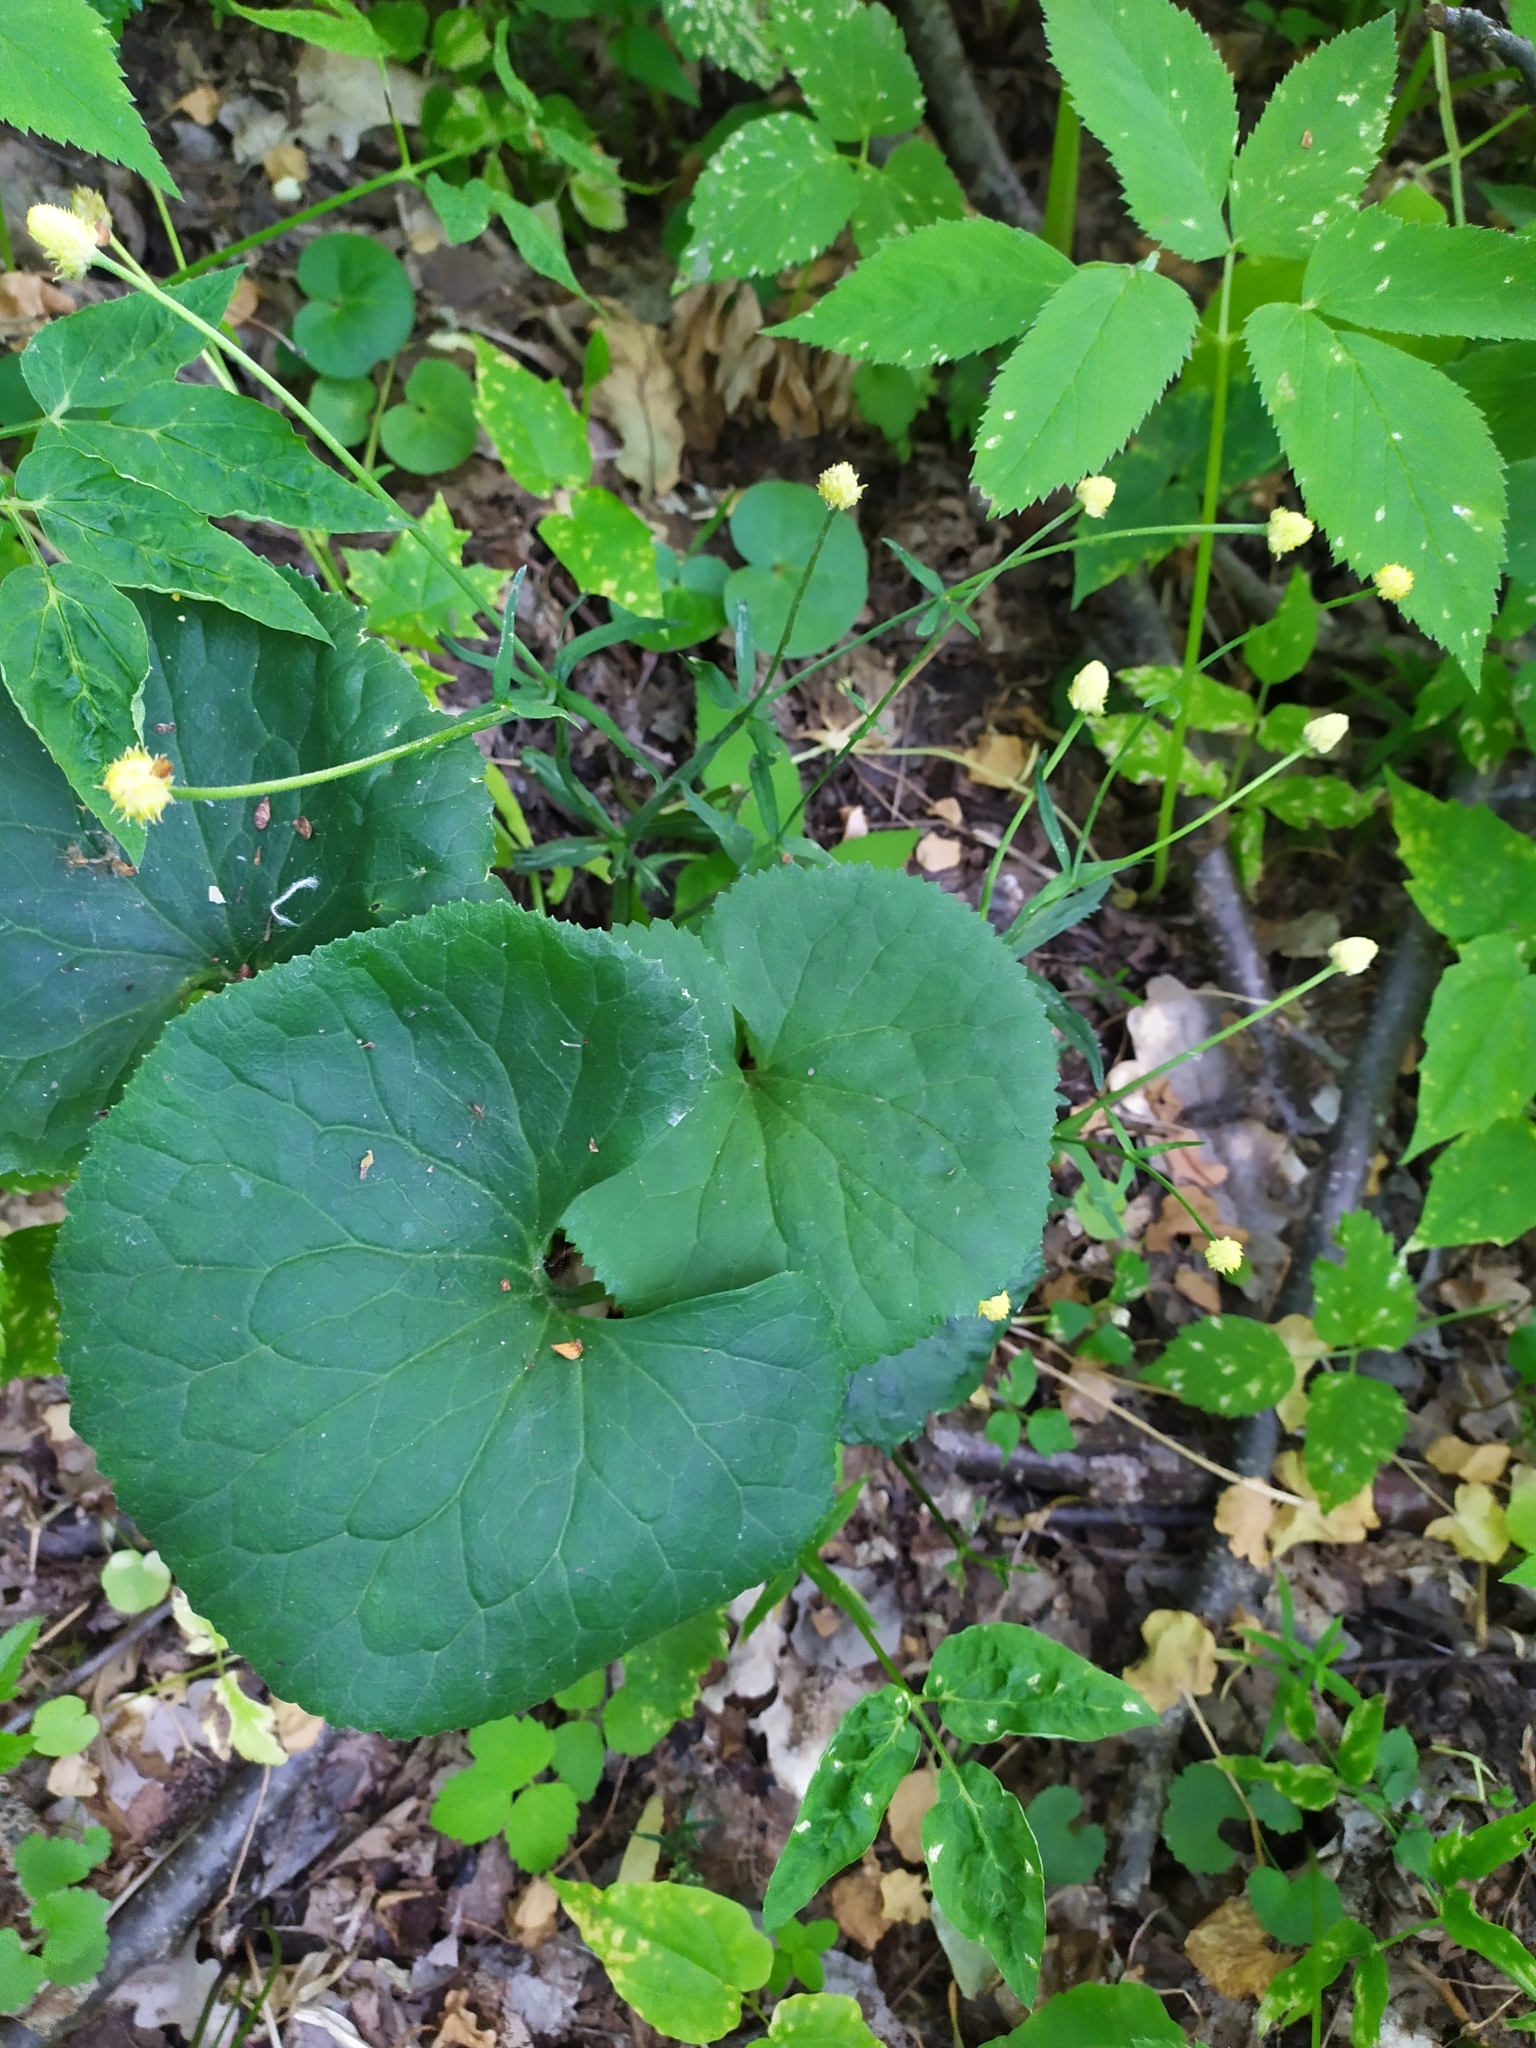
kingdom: Plantae
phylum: Tracheophyta
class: Magnoliopsida
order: Ranunculales
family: Ranunculaceae
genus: Ranunculus
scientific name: Ranunculus cassubicus
